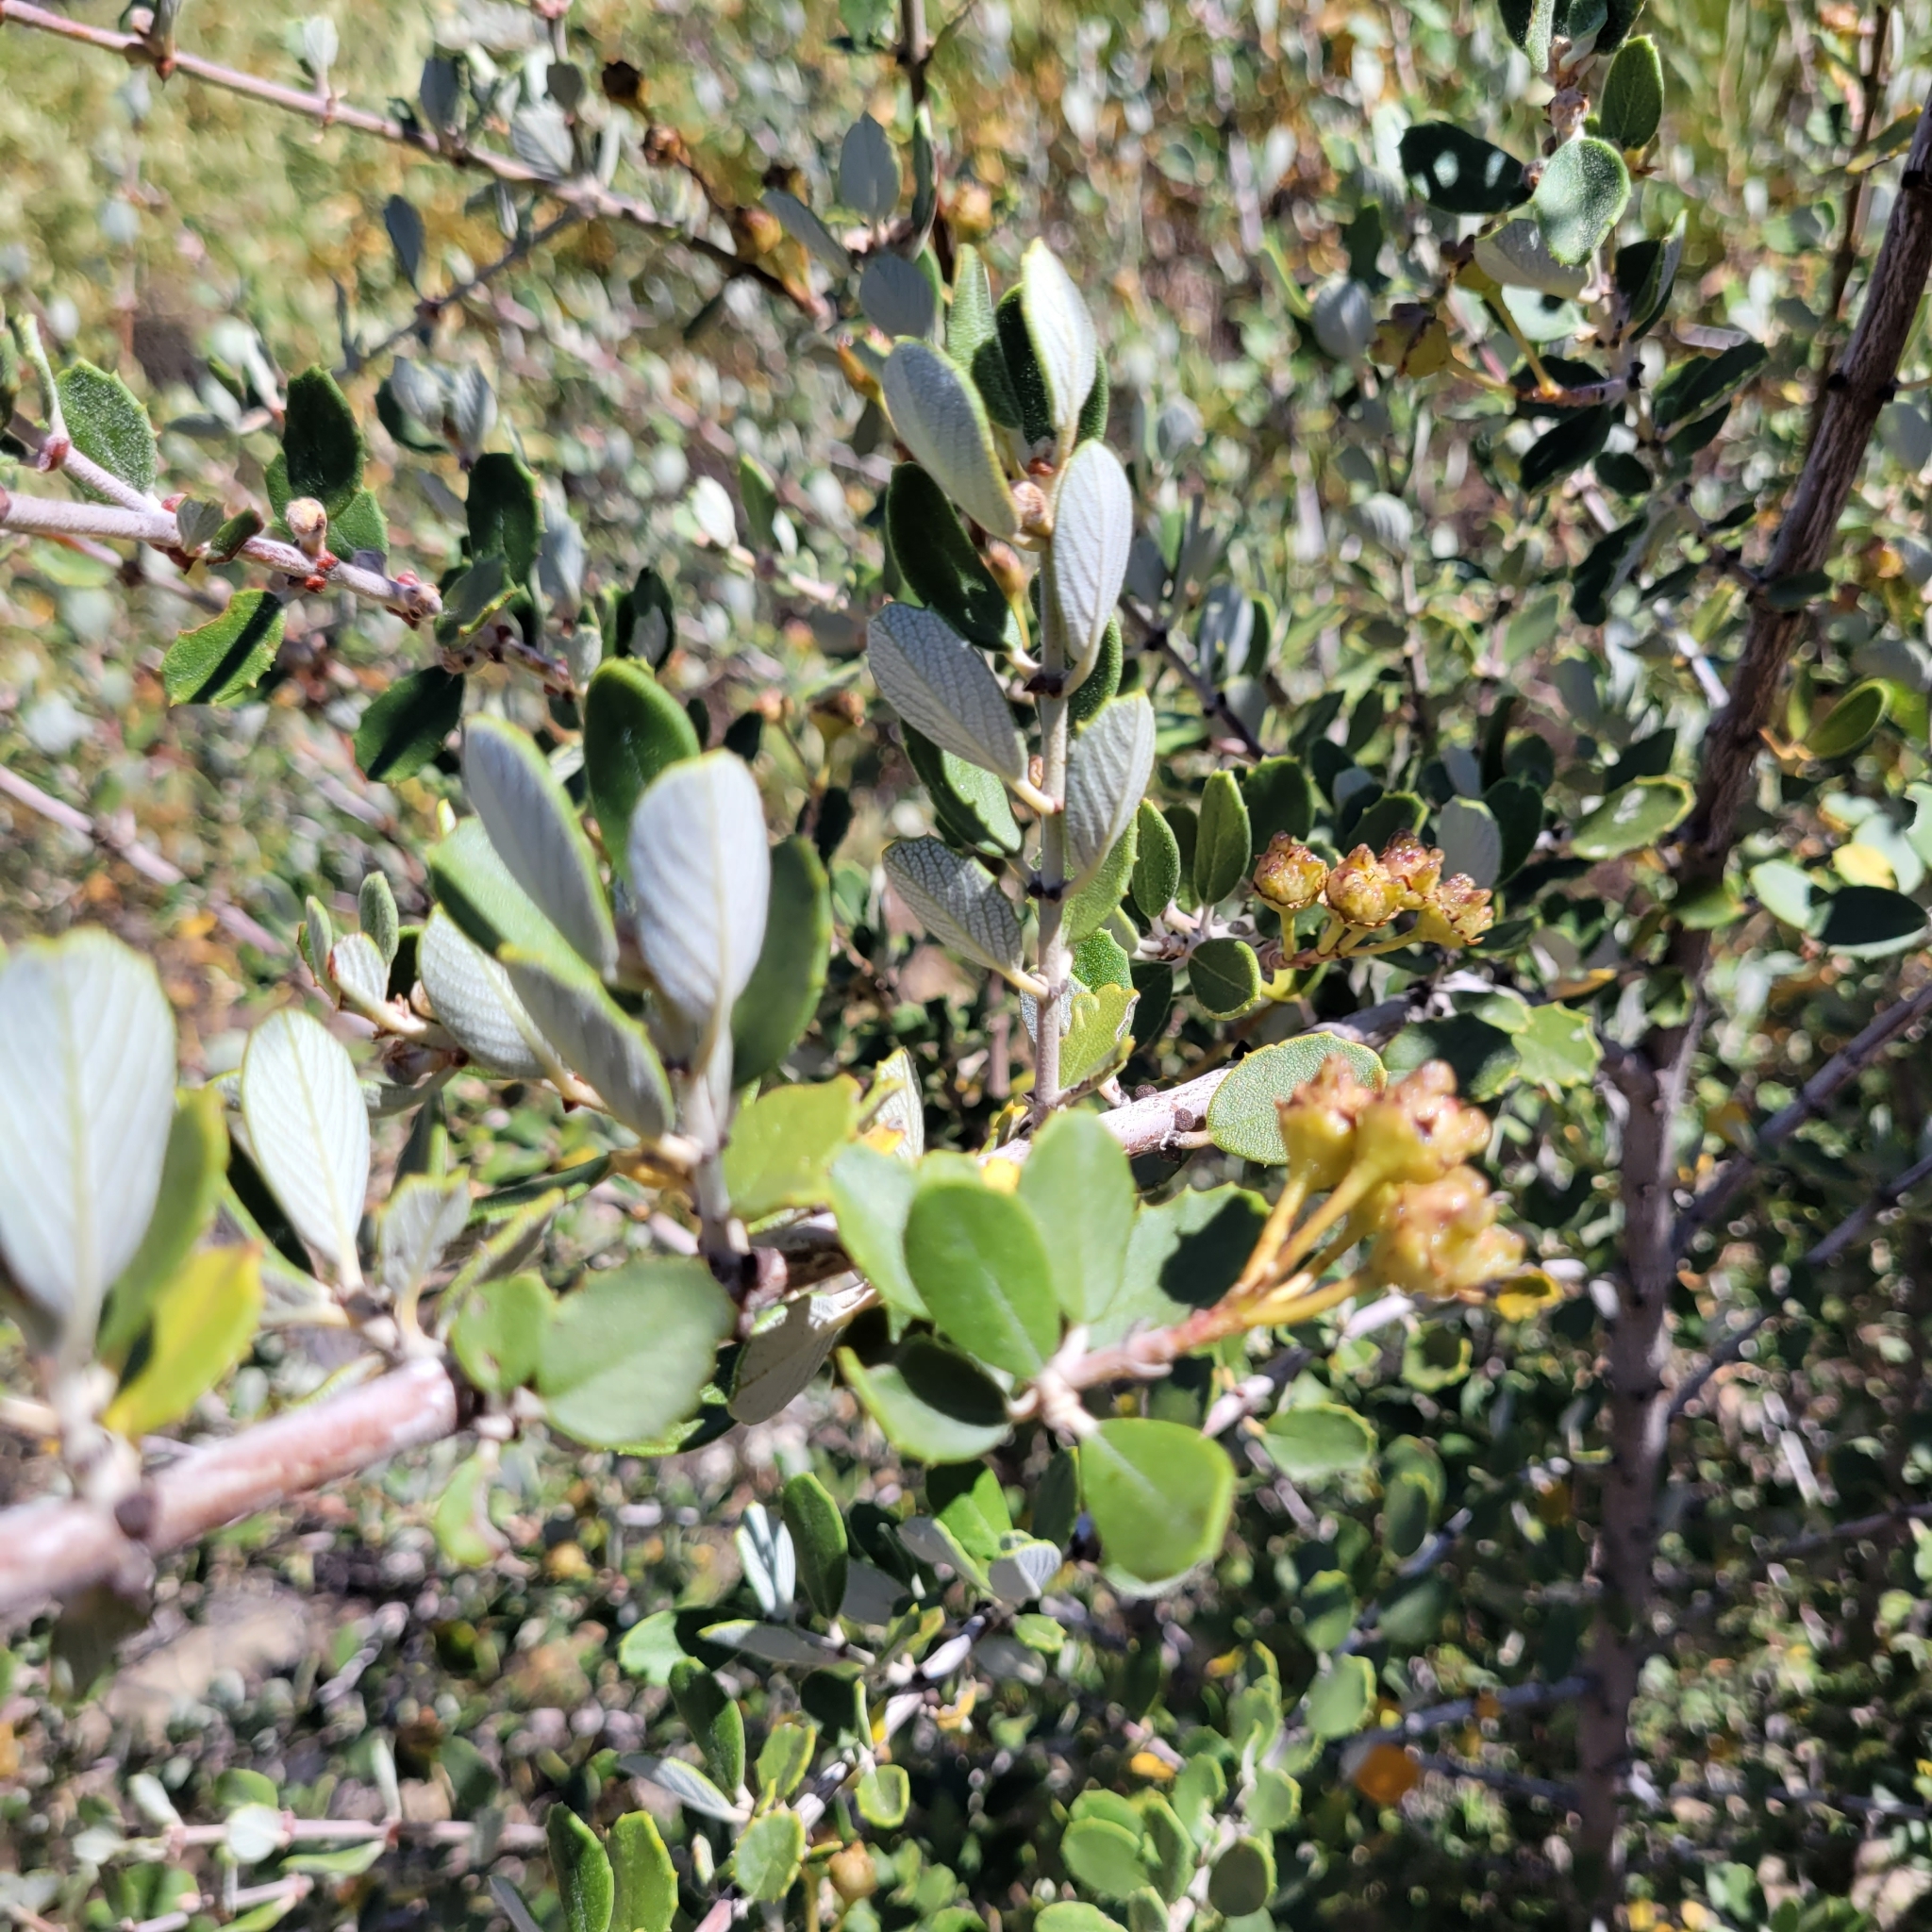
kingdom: Plantae
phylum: Tracheophyta
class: Magnoliopsida
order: Rosales
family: Rhamnaceae
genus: Ceanothus
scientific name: Ceanothus crassifolius
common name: Hoaryleaf ceanothus
